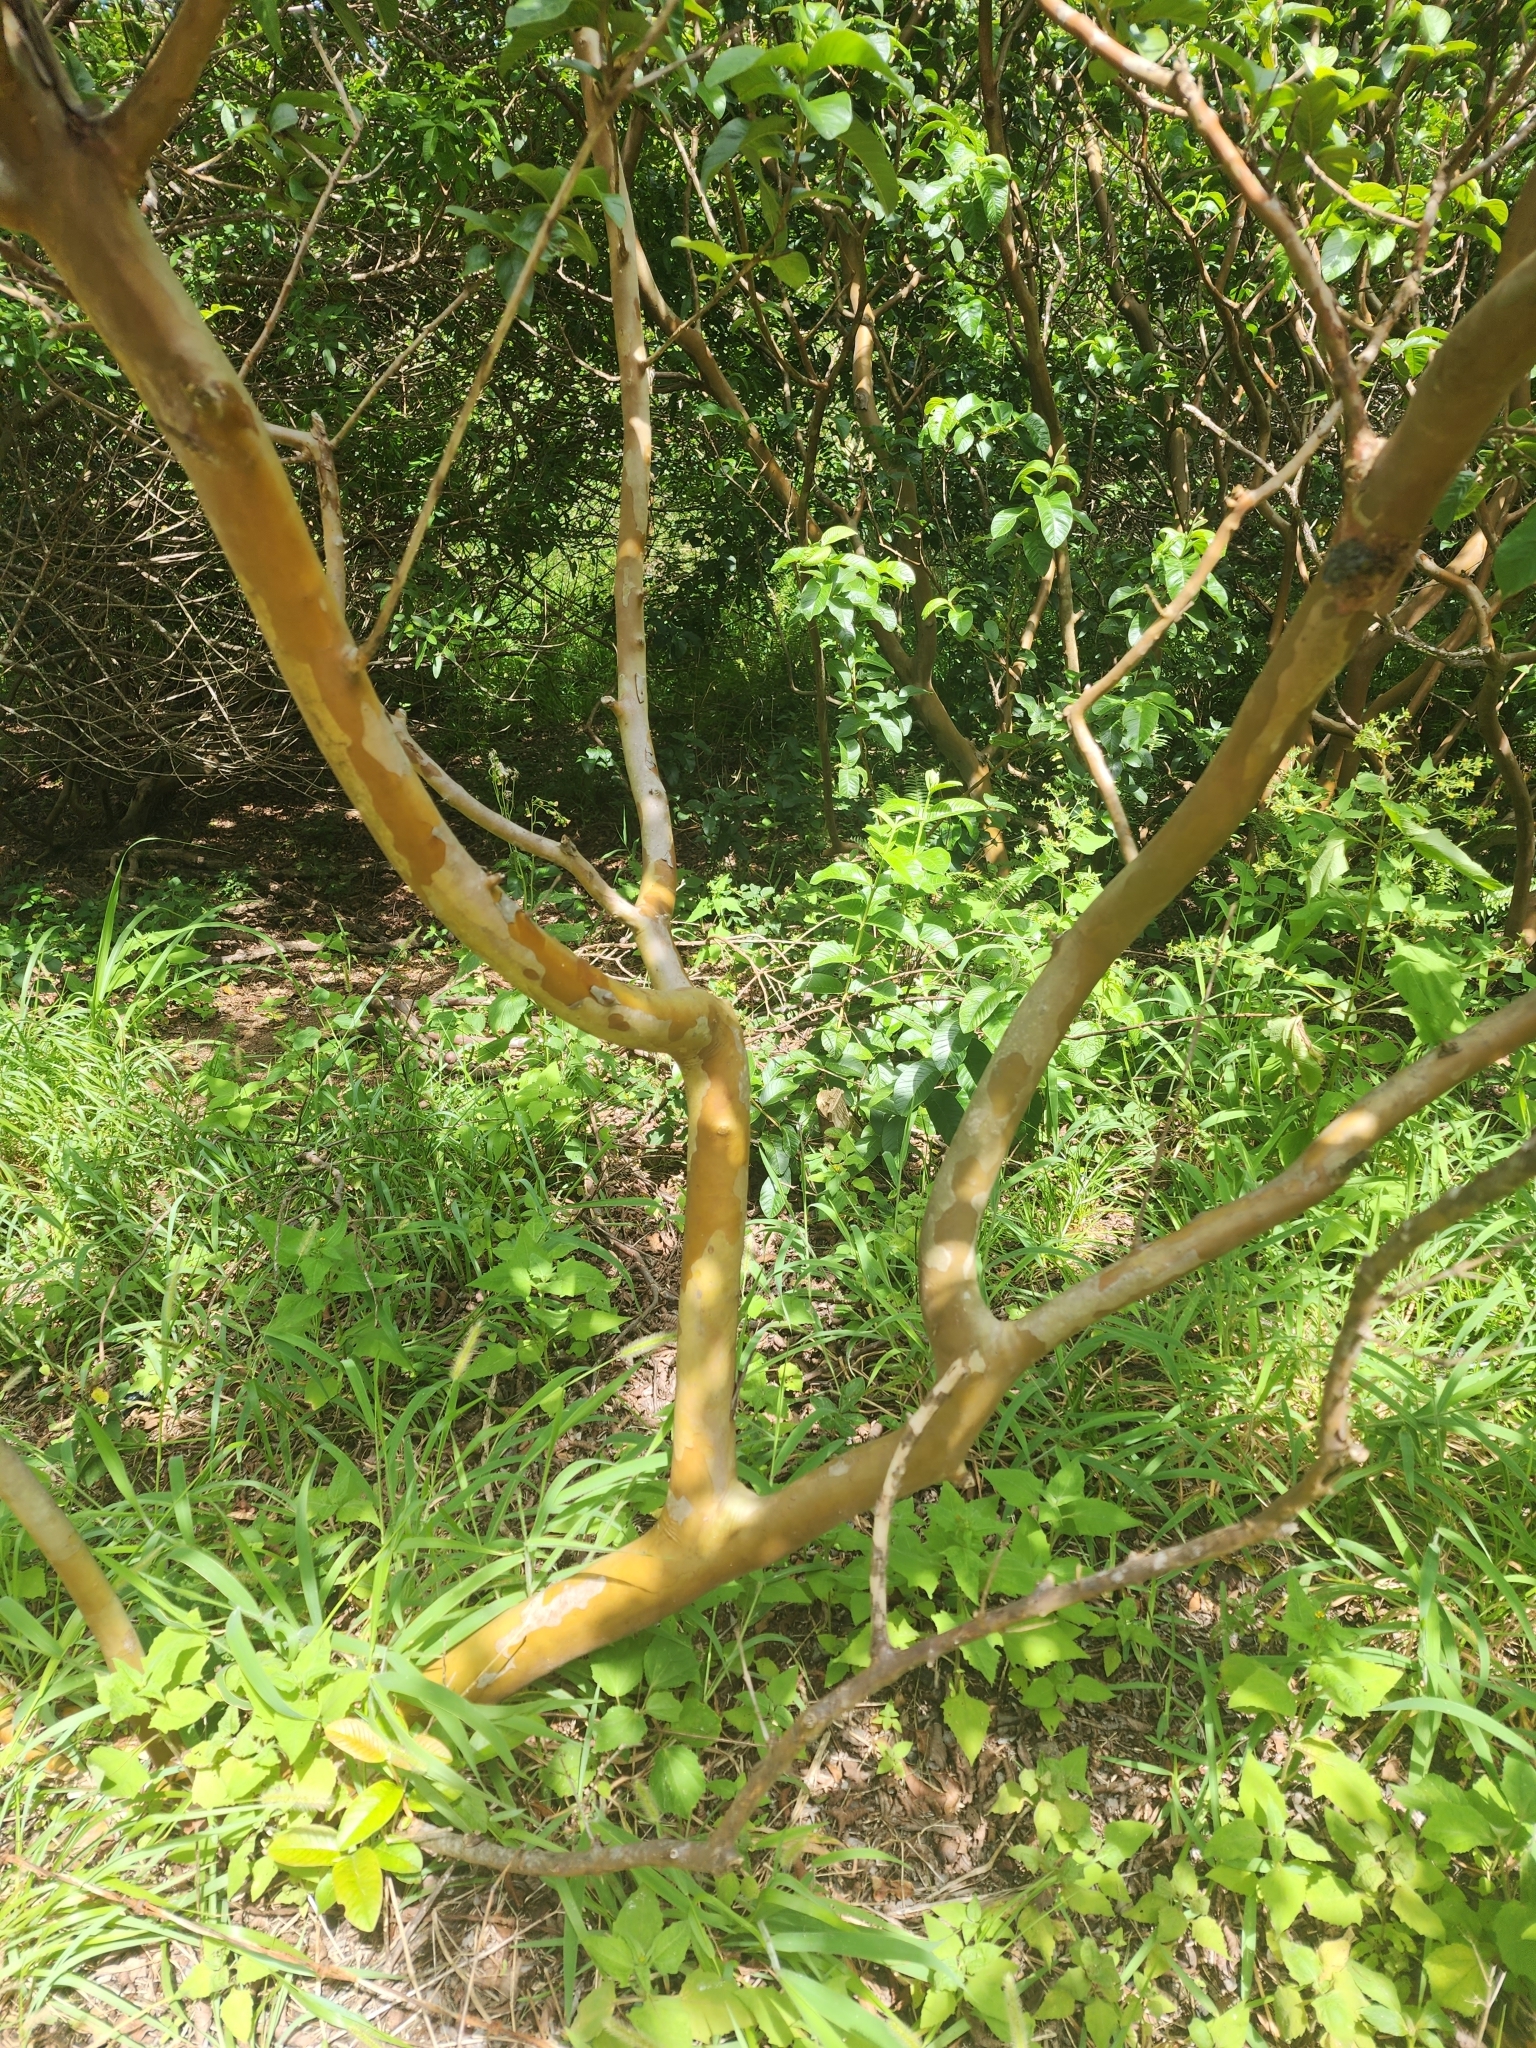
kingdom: Plantae
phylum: Tracheophyta
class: Magnoliopsida
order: Myrtales
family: Myrtaceae
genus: Psidium
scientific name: Psidium guajava
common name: Guava
